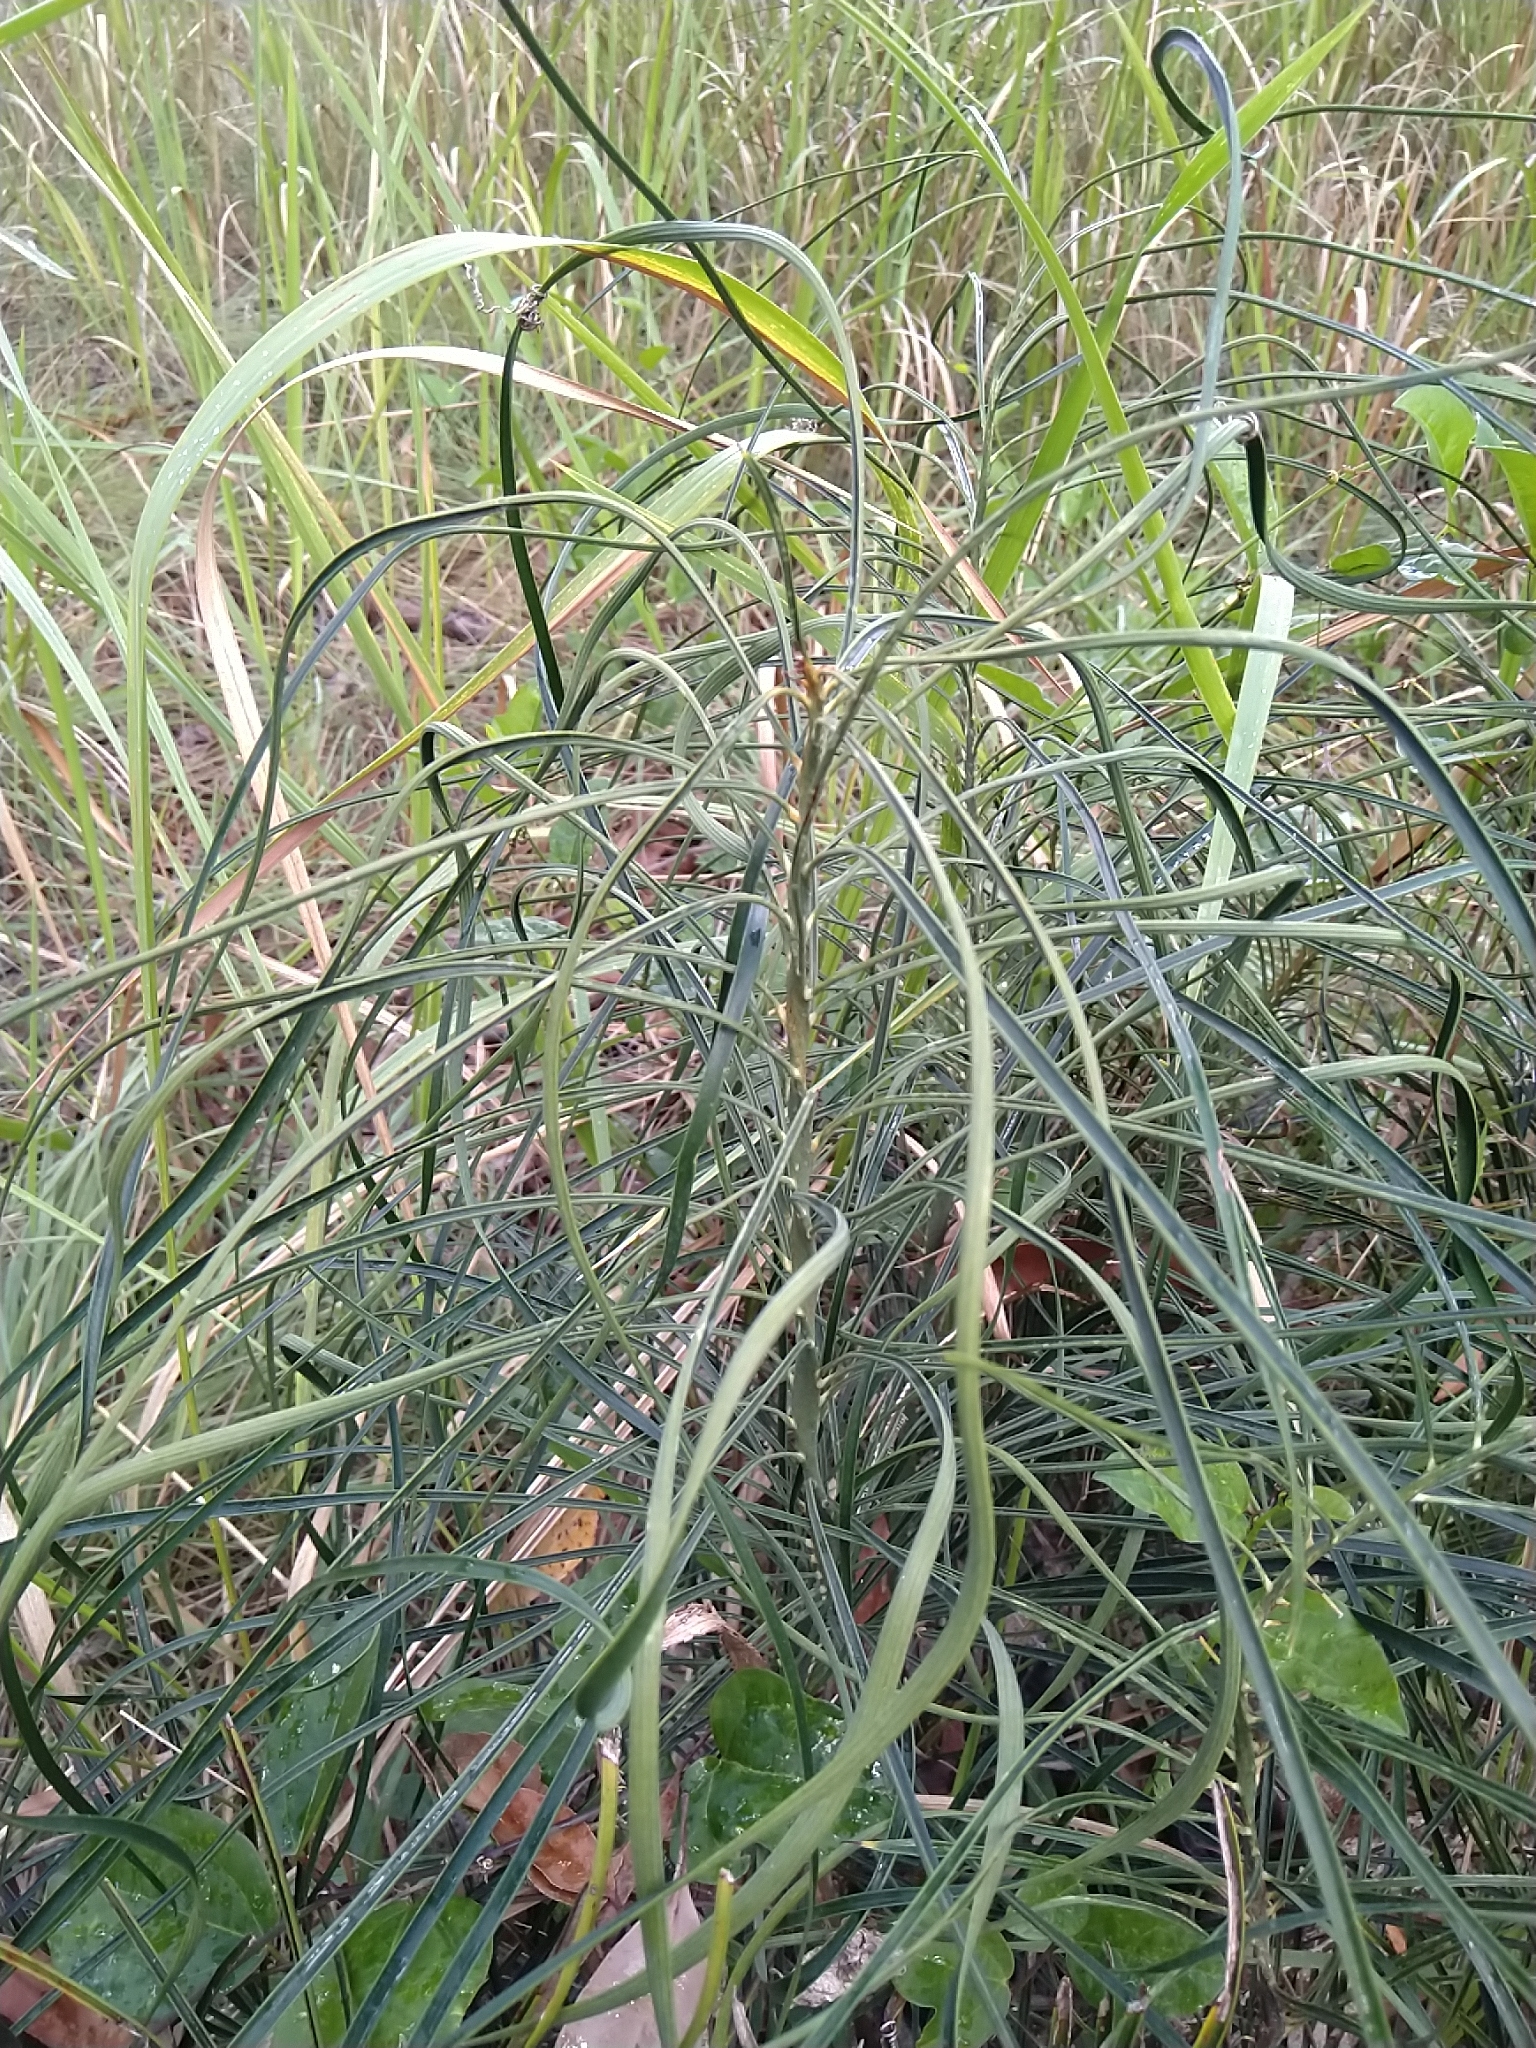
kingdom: Plantae
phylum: Tracheophyta
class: Cycadopsida
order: Cycadales
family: Zamiaceae
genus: Macrozamia
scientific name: Macrozamia parcifolia
